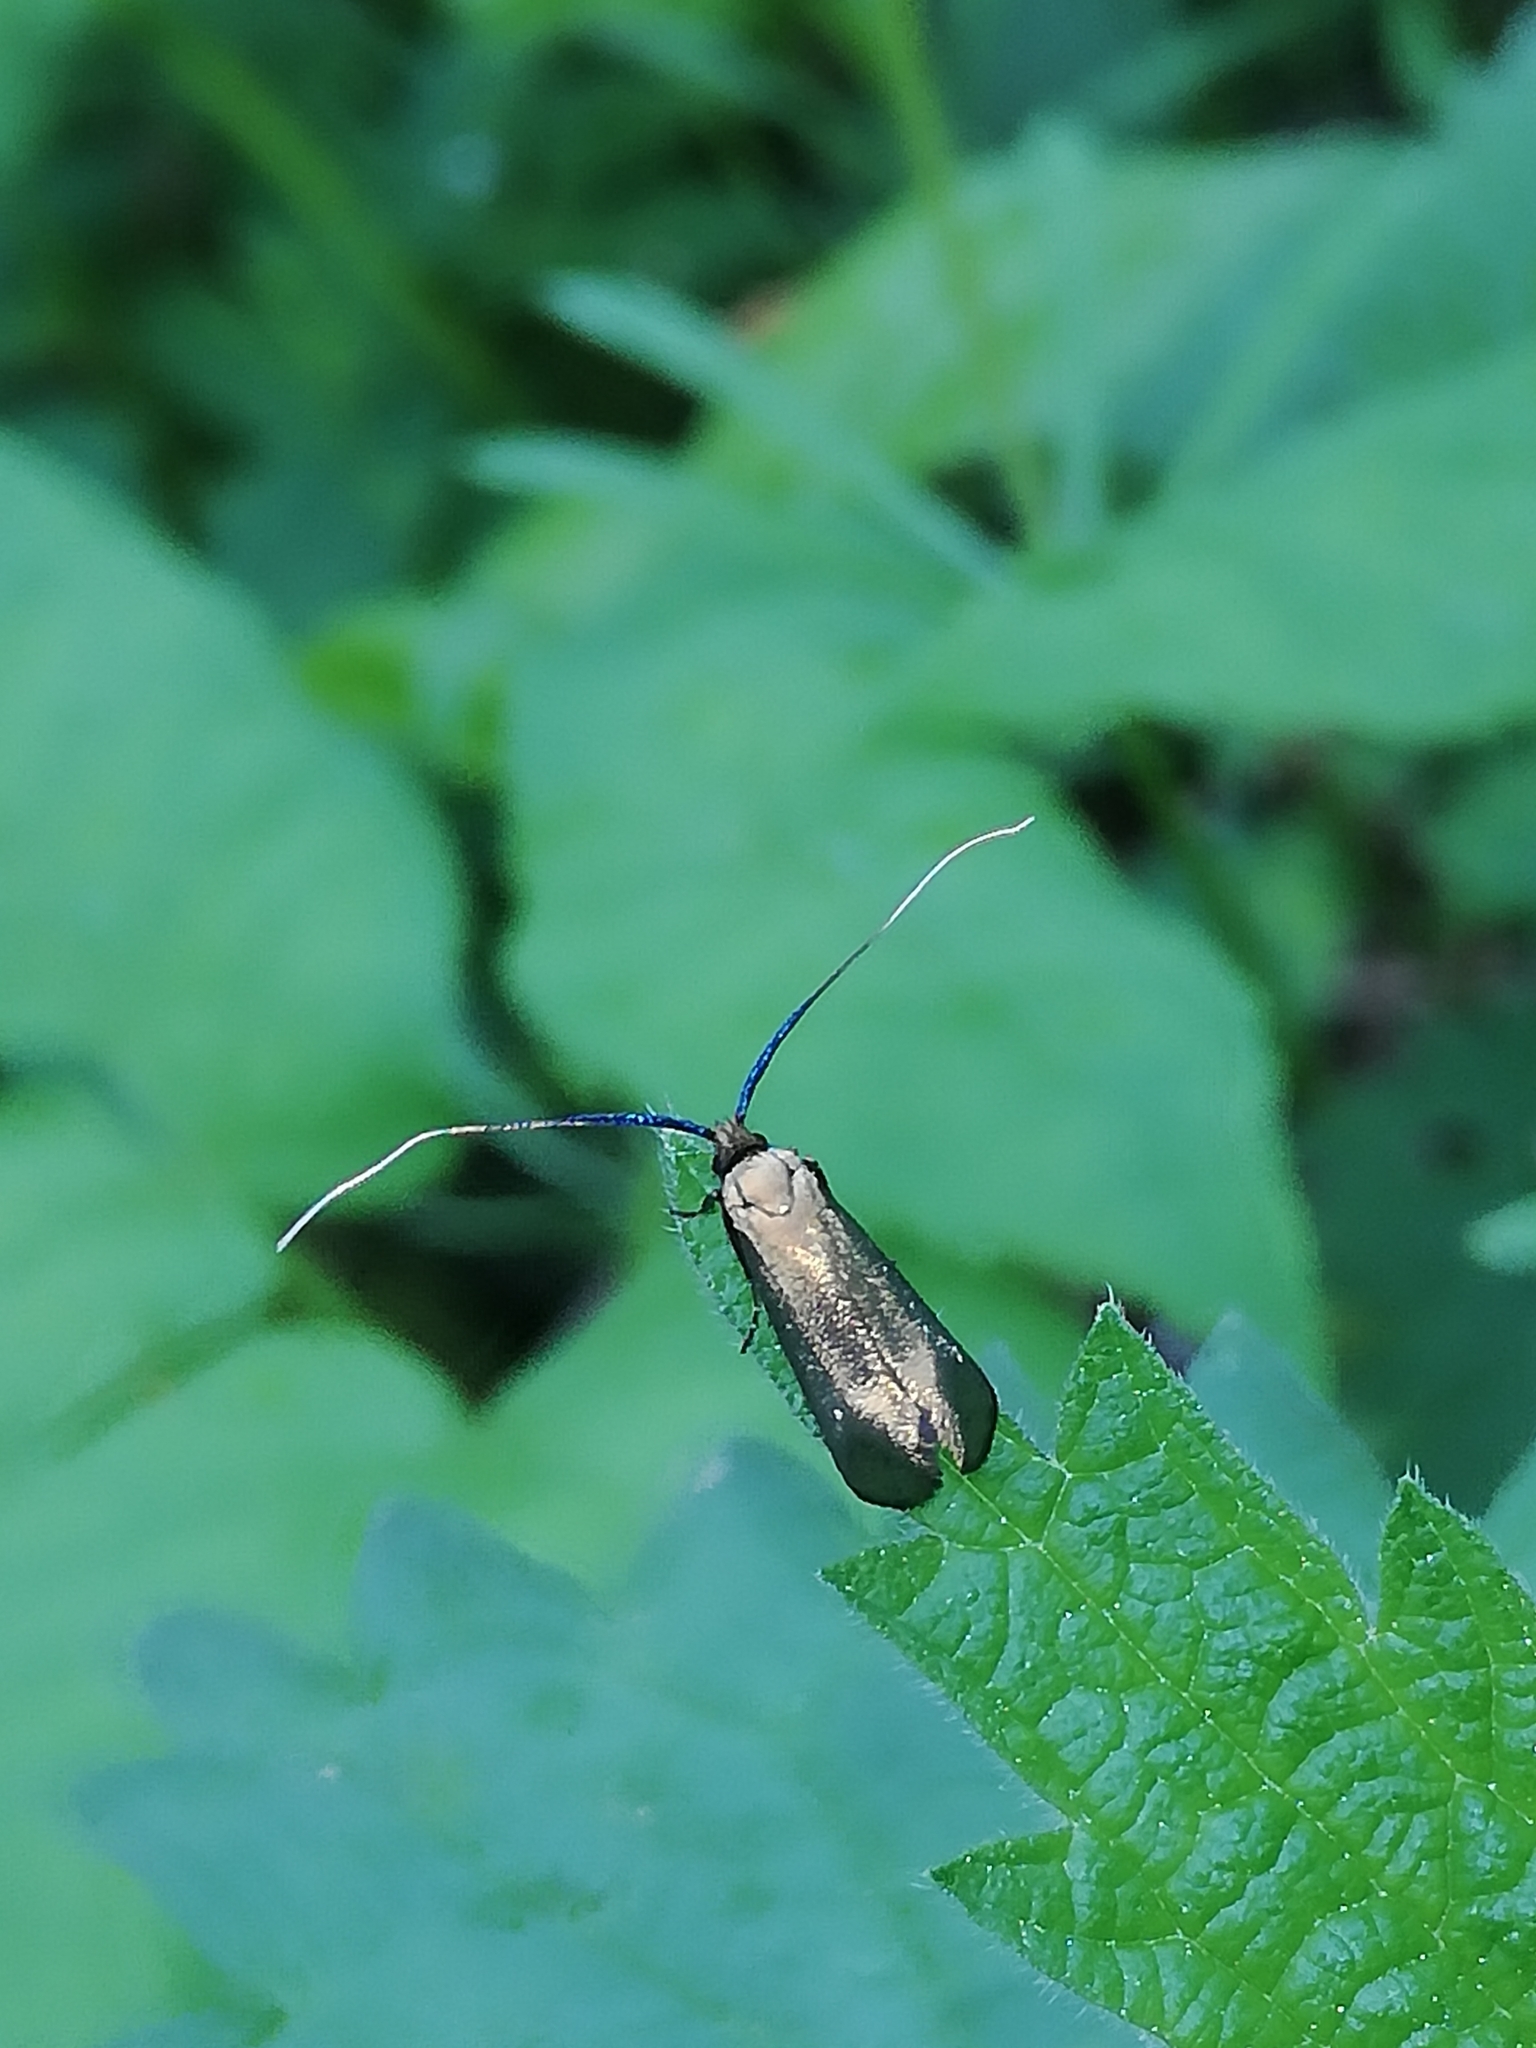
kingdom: Animalia
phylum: Arthropoda
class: Insecta
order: Lepidoptera
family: Adelidae
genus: Adela
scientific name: Adela viridella
